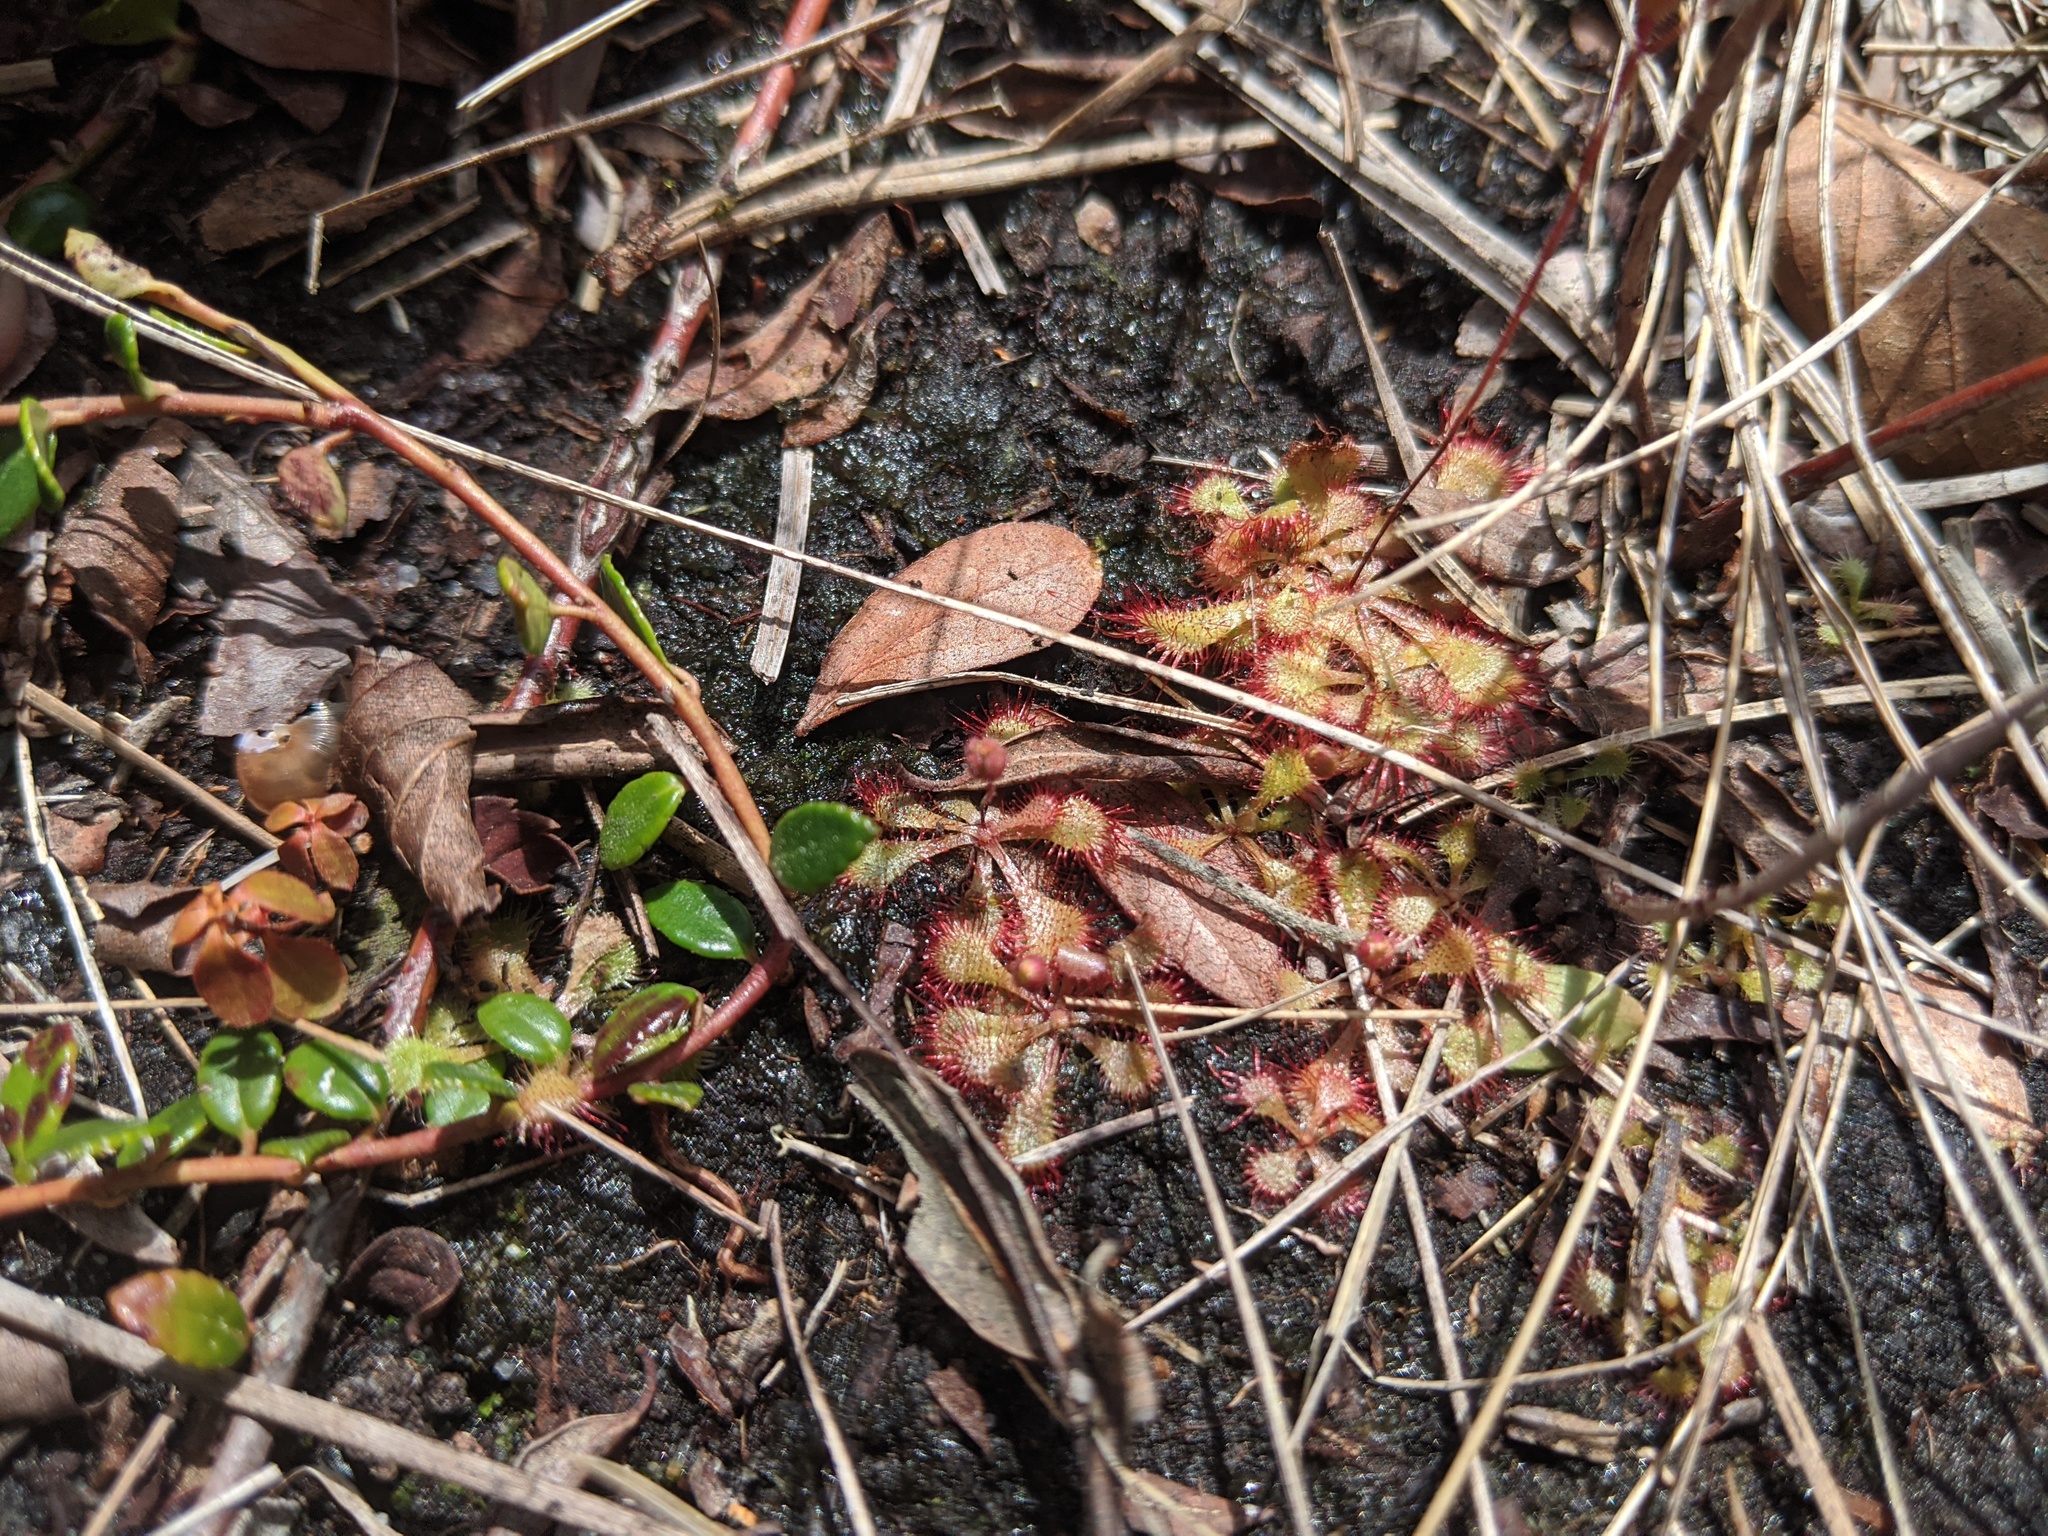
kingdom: Plantae
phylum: Tracheophyta
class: Magnoliopsida
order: Caryophyllales
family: Droseraceae
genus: Drosera
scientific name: Drosera capillaris
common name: Pink sundew
